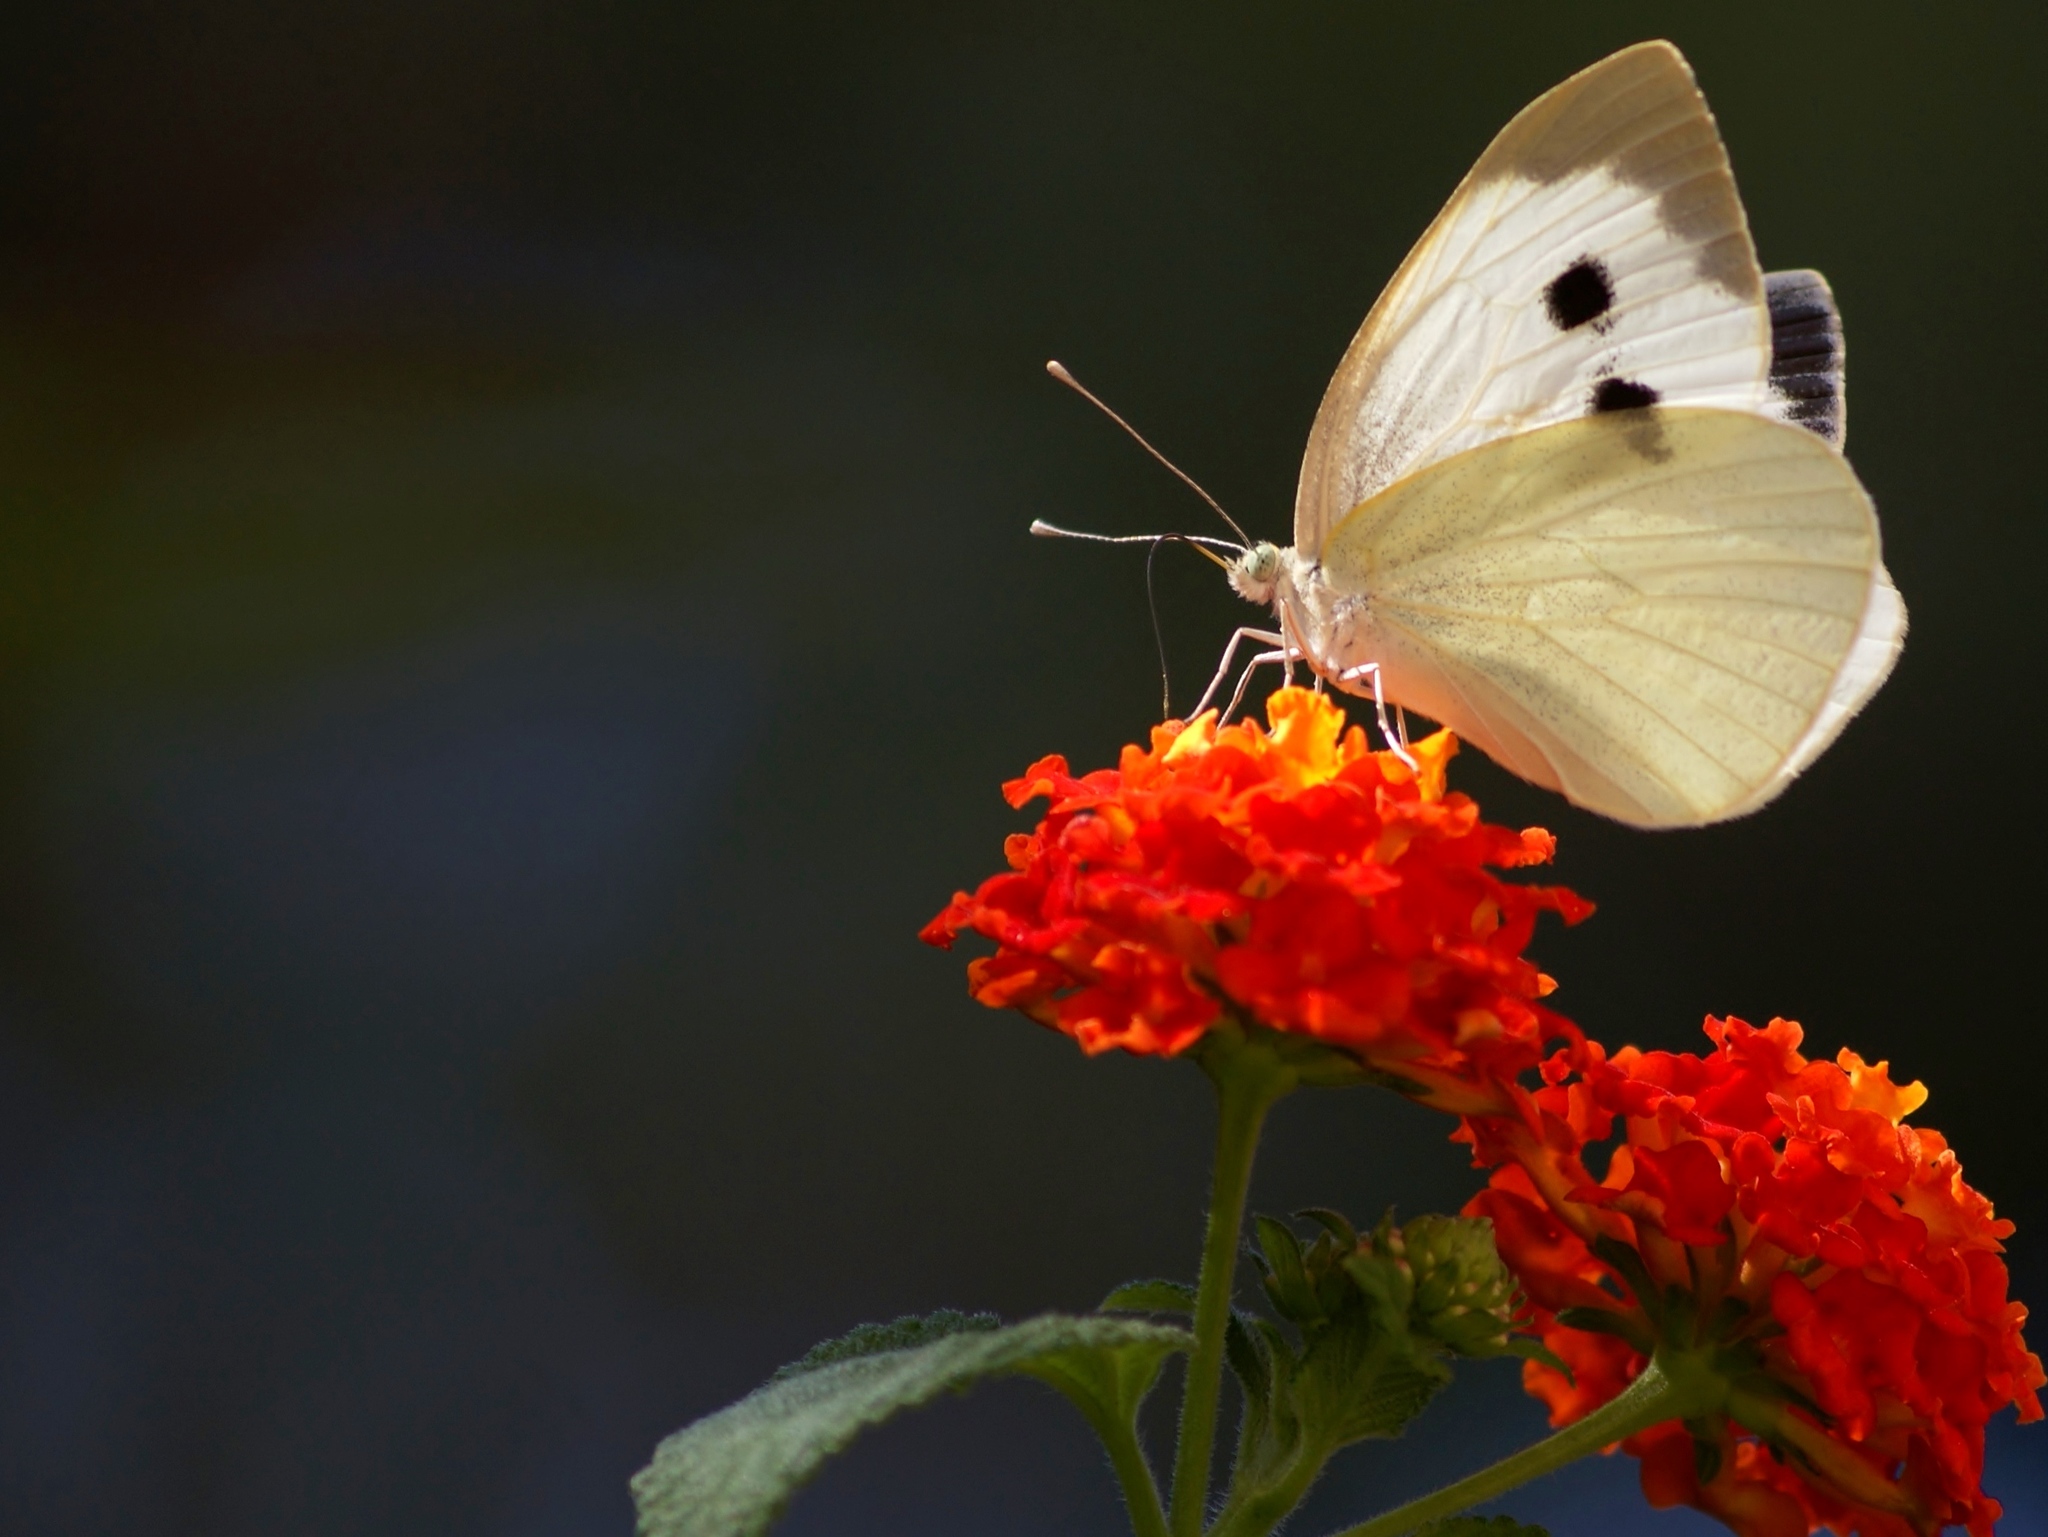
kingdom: Animalia
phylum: Arthropoda
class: Insecta
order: Lepidoptera
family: Pieridae
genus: Pieris
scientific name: Pieris brassicae
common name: Large white
